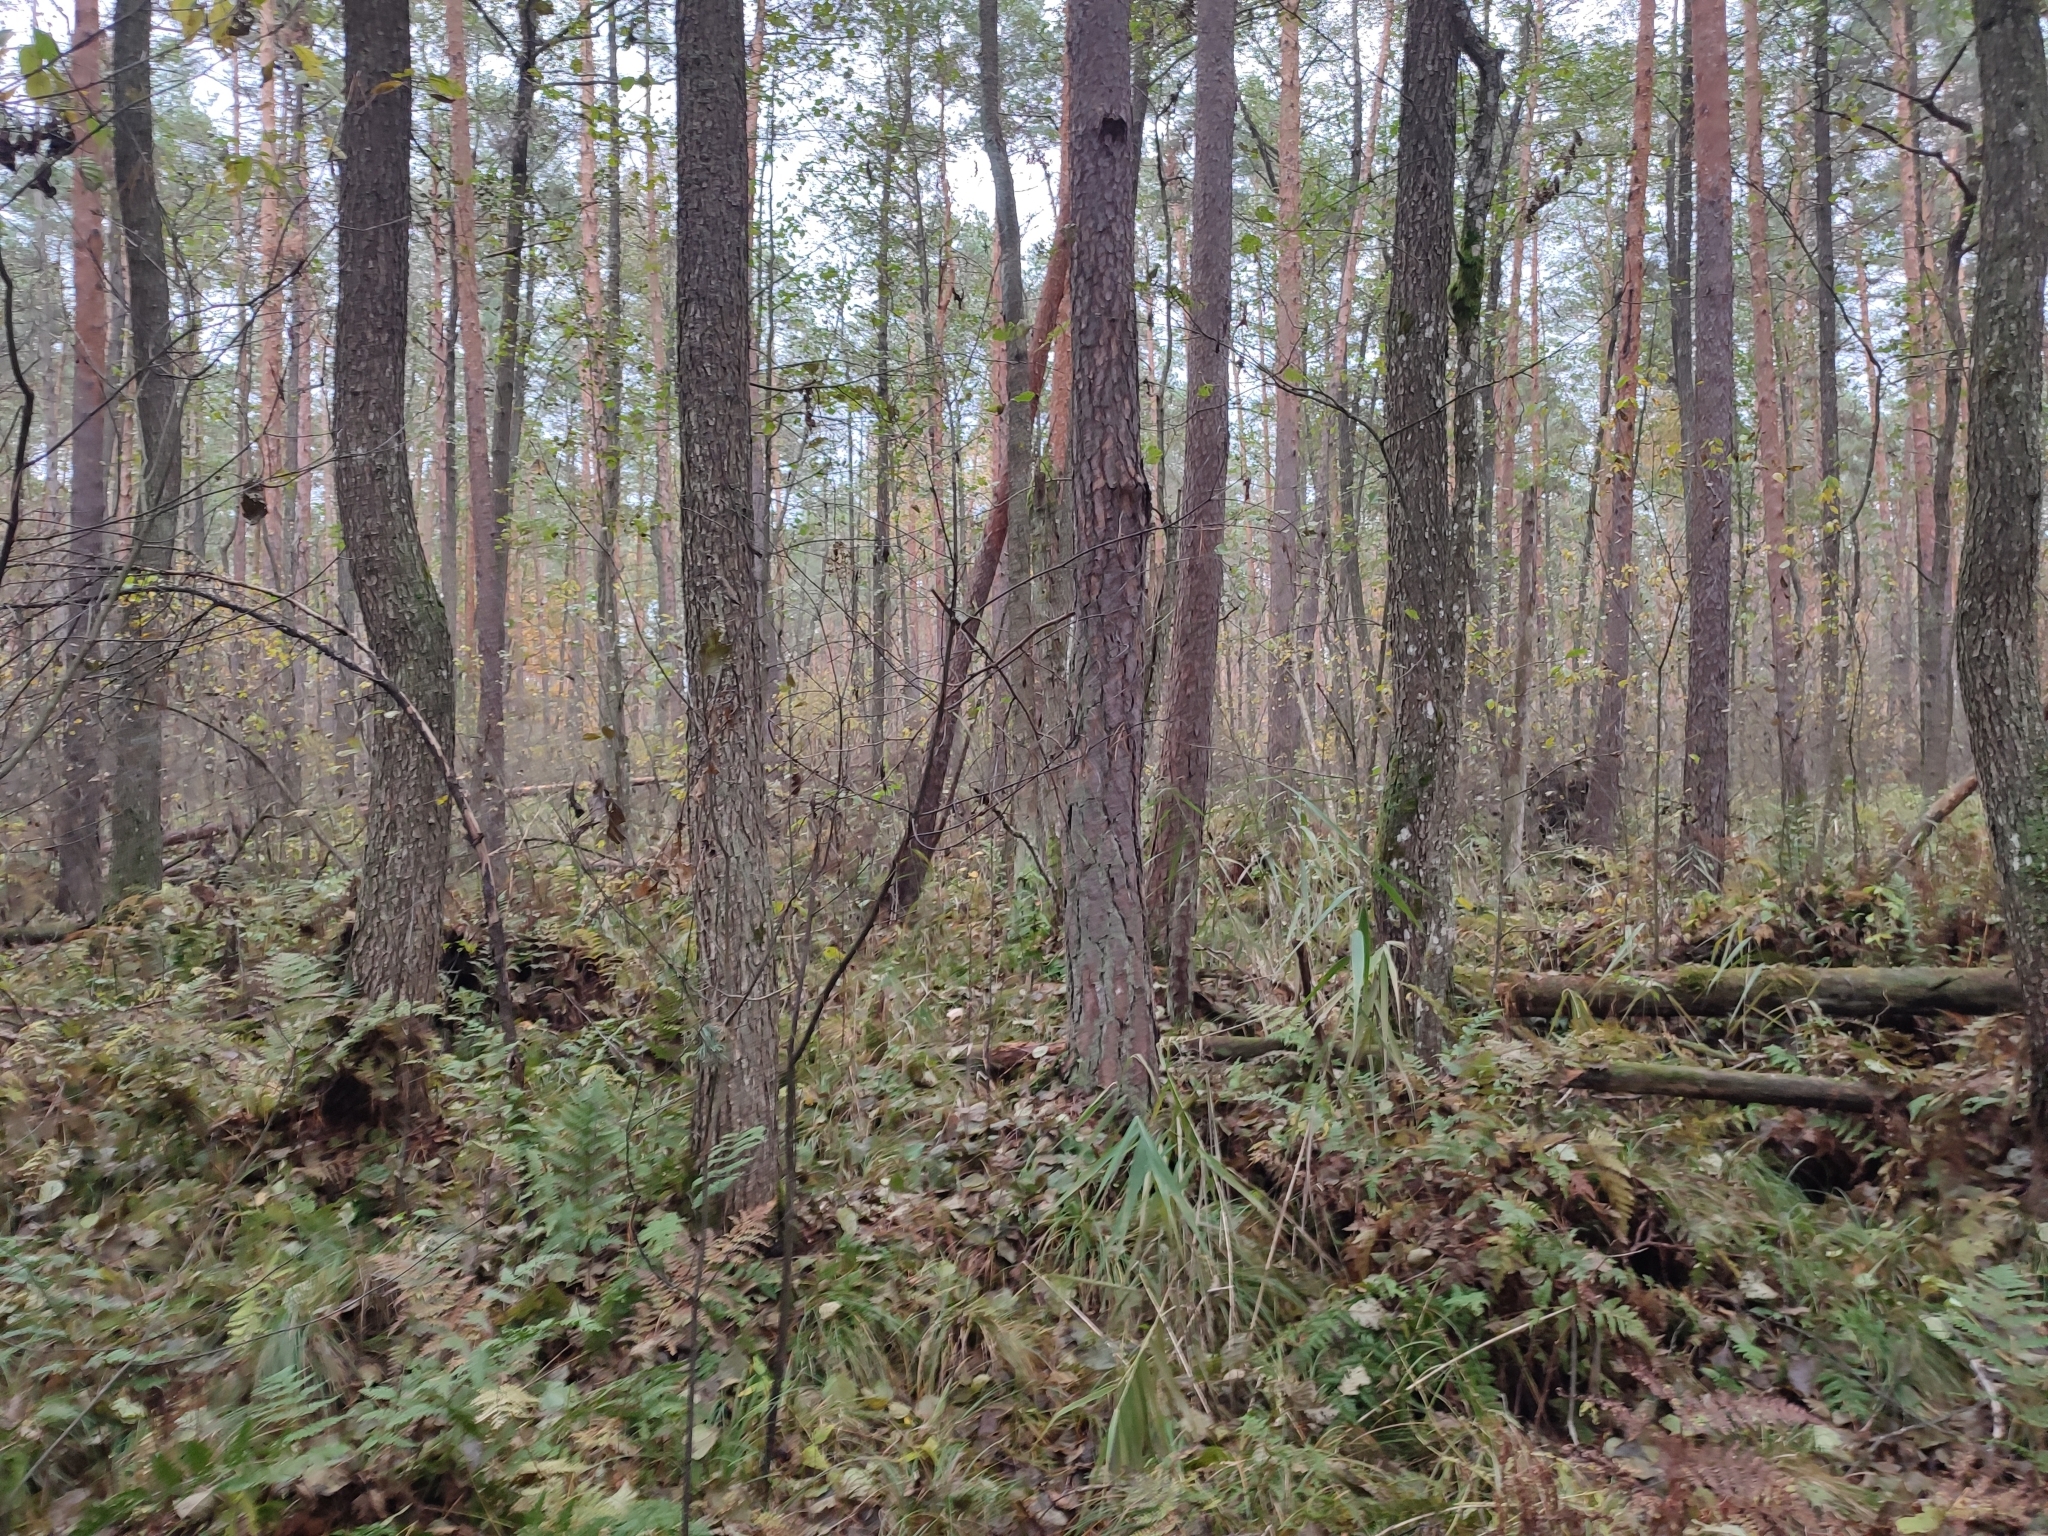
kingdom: Plantae
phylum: Tracheophyta
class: Magnoliopsida
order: Fagales
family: Betulaceae
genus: Alnus
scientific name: Alnus glutinosa
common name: Black alder
